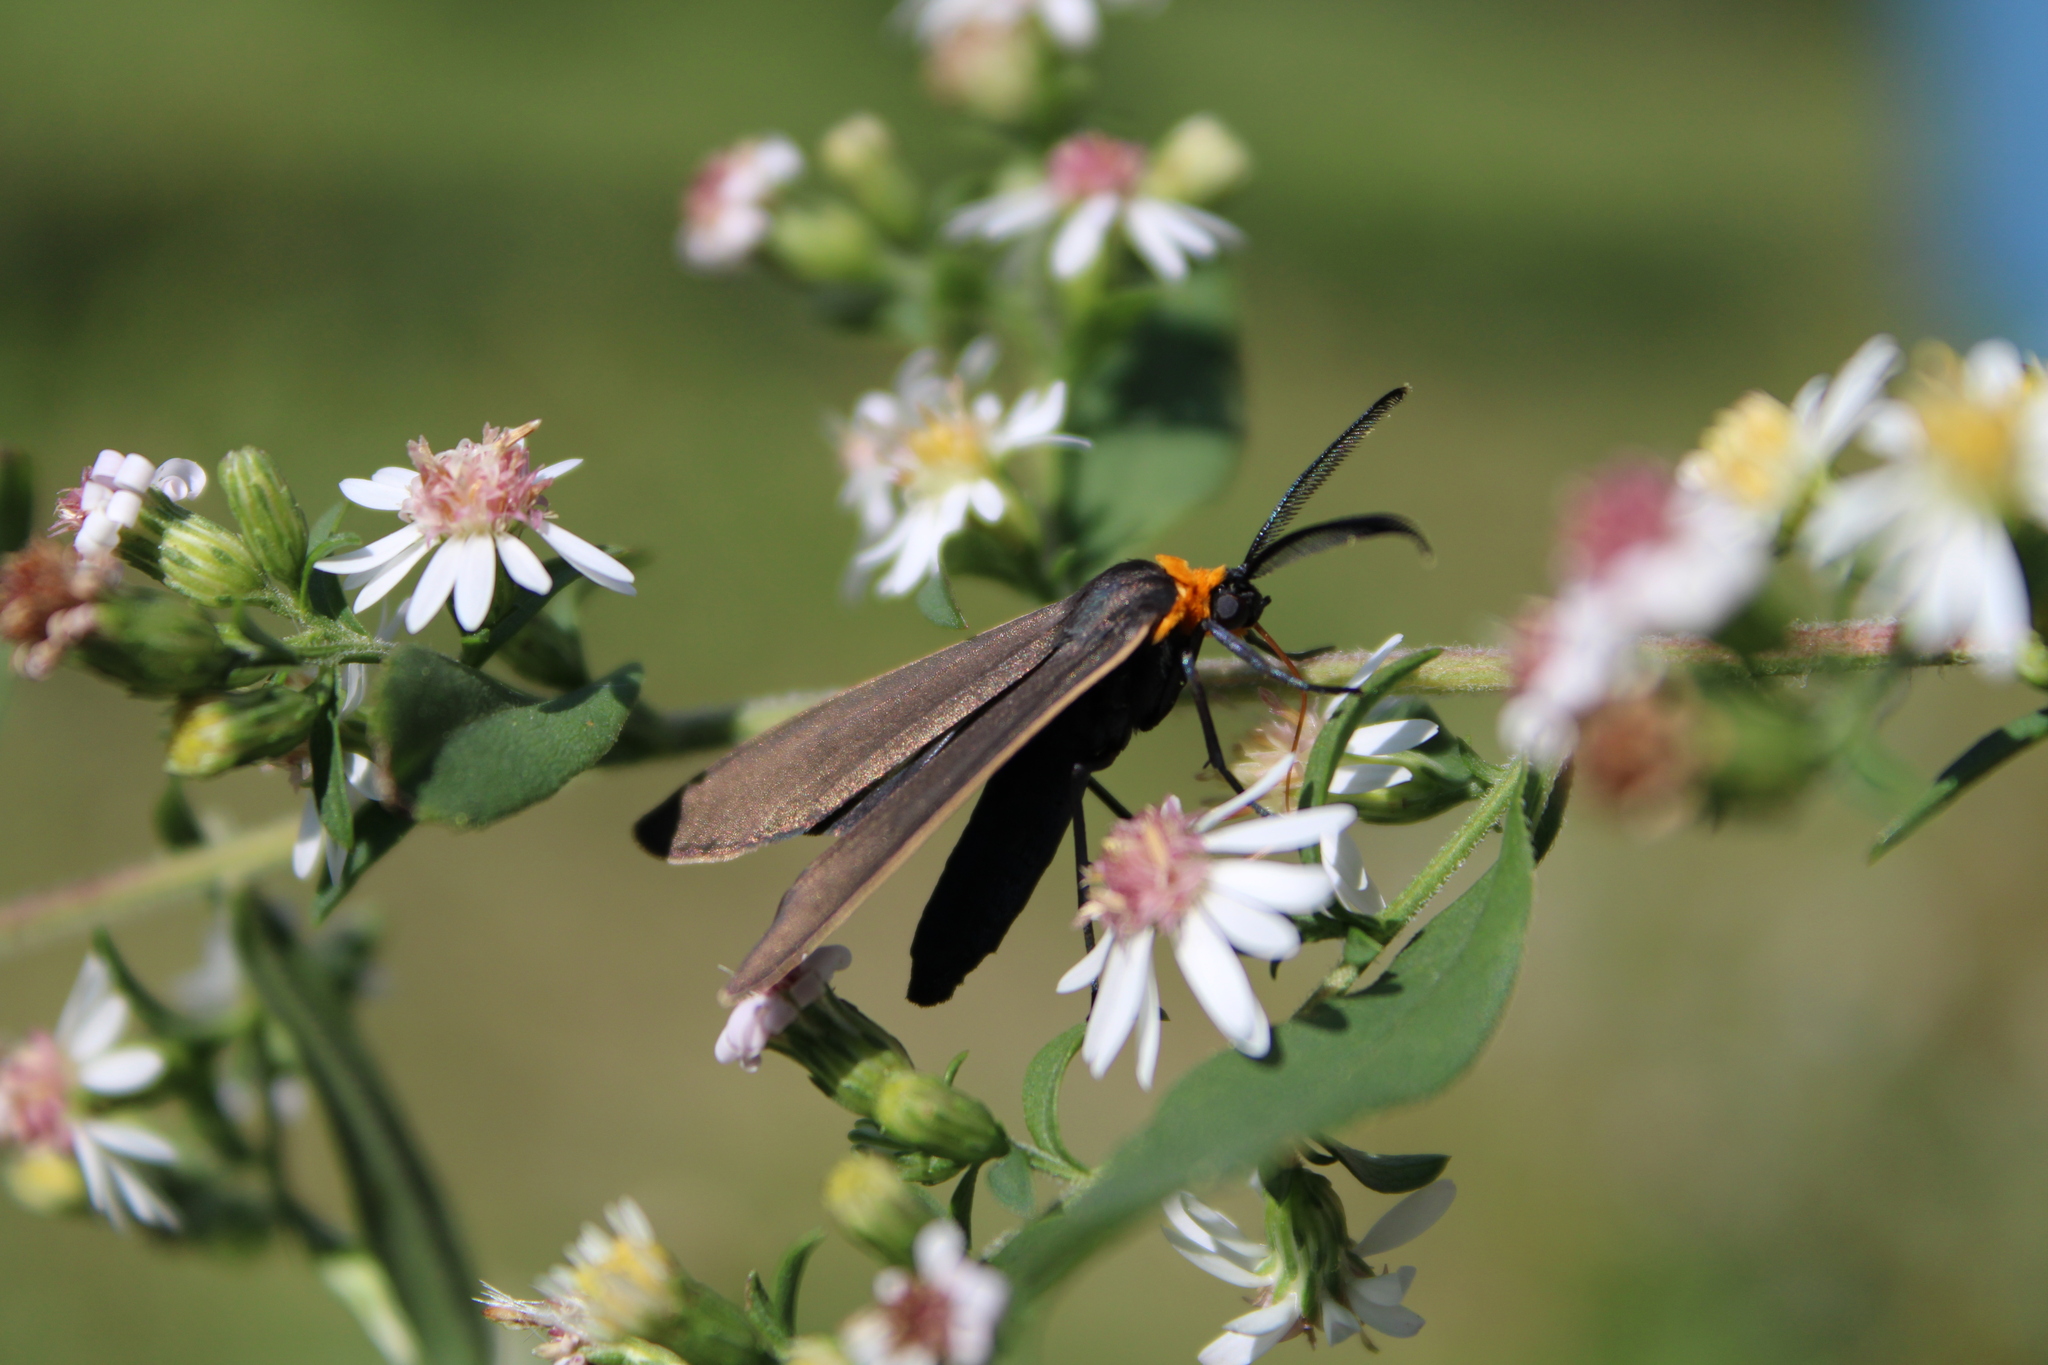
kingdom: Animalia
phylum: Arthropoda
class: Insecta
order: Lepidoptera
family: Erebidae
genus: Cisseps
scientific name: Cisseps fulvicollis
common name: Yellow-collared scape moth
